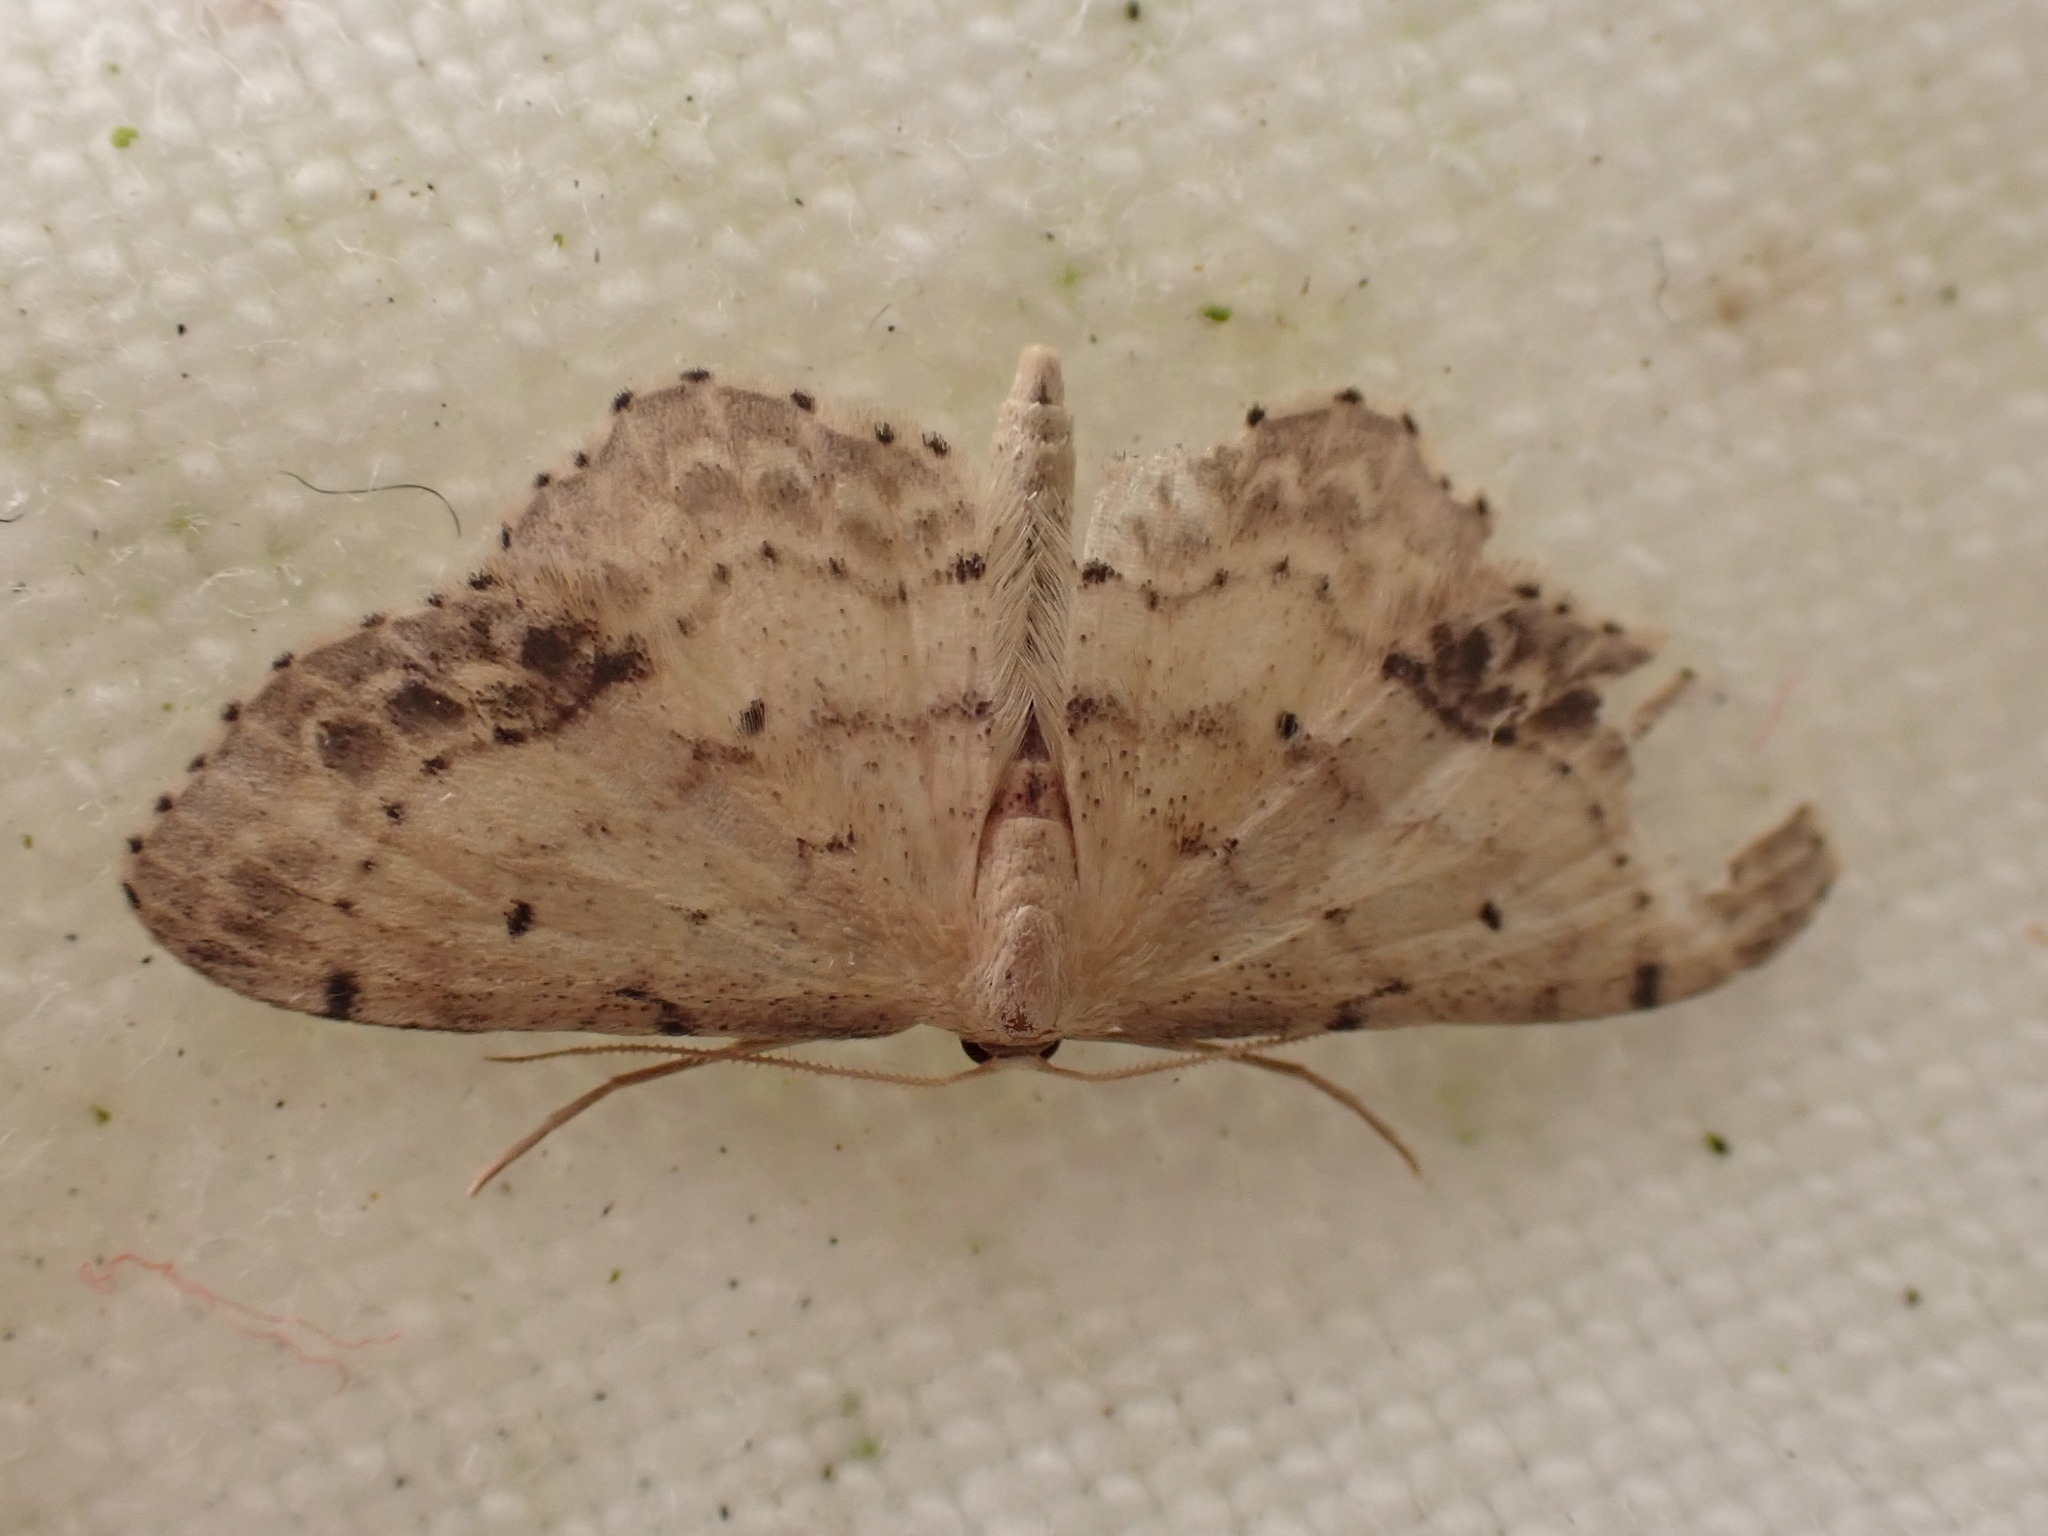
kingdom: Animalia
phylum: Arthropoda
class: Insecta
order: Lepidoptera
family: Geometridae
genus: Idaea
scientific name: Idaea dimidiata
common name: Single-dotted wave
